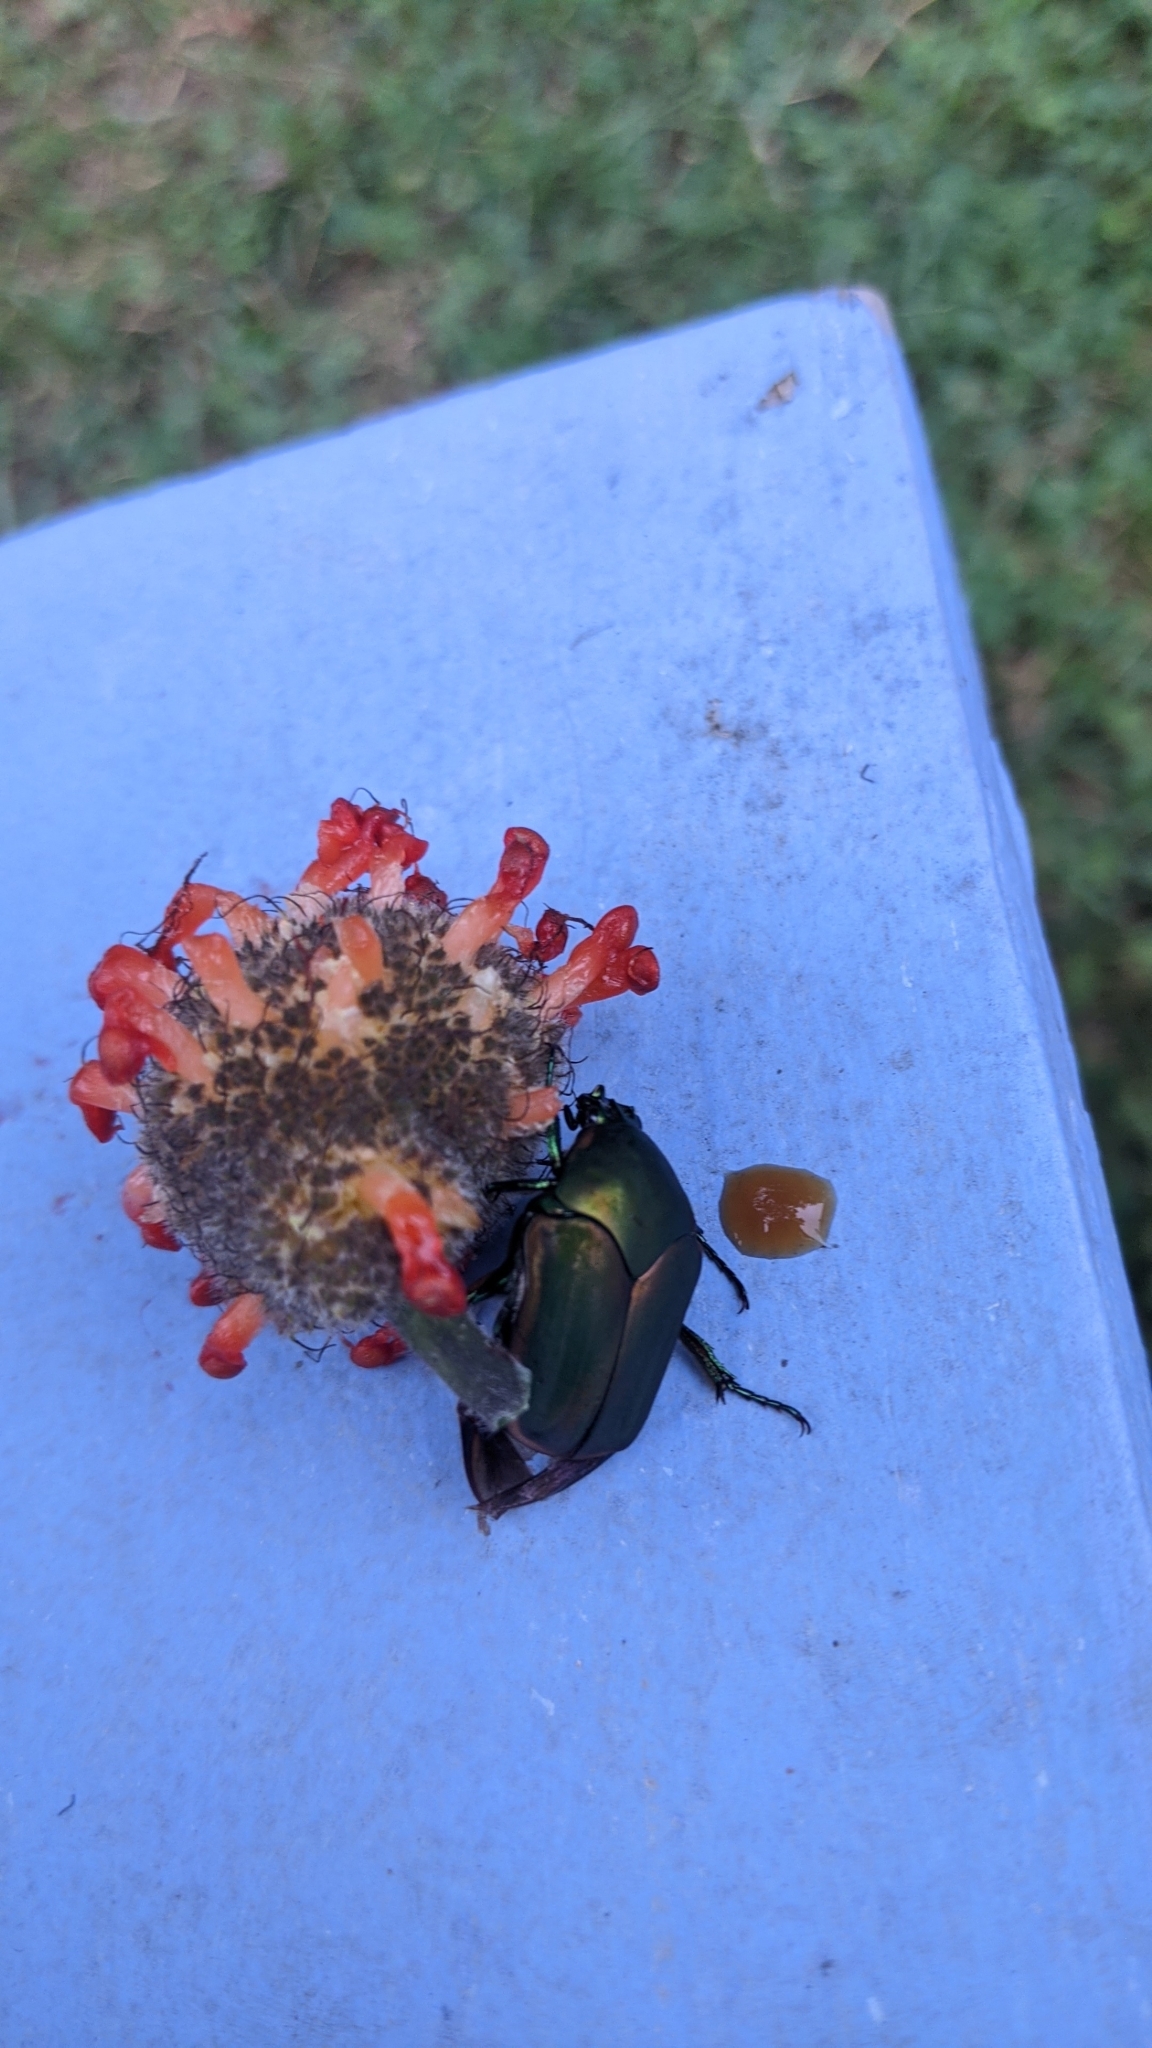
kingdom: Animalia
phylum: Arthropoda
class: Insecta
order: Coleoptera
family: Scarabaeidae
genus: Cotinis
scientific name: Cotinis nitida
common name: Common green june beetle
